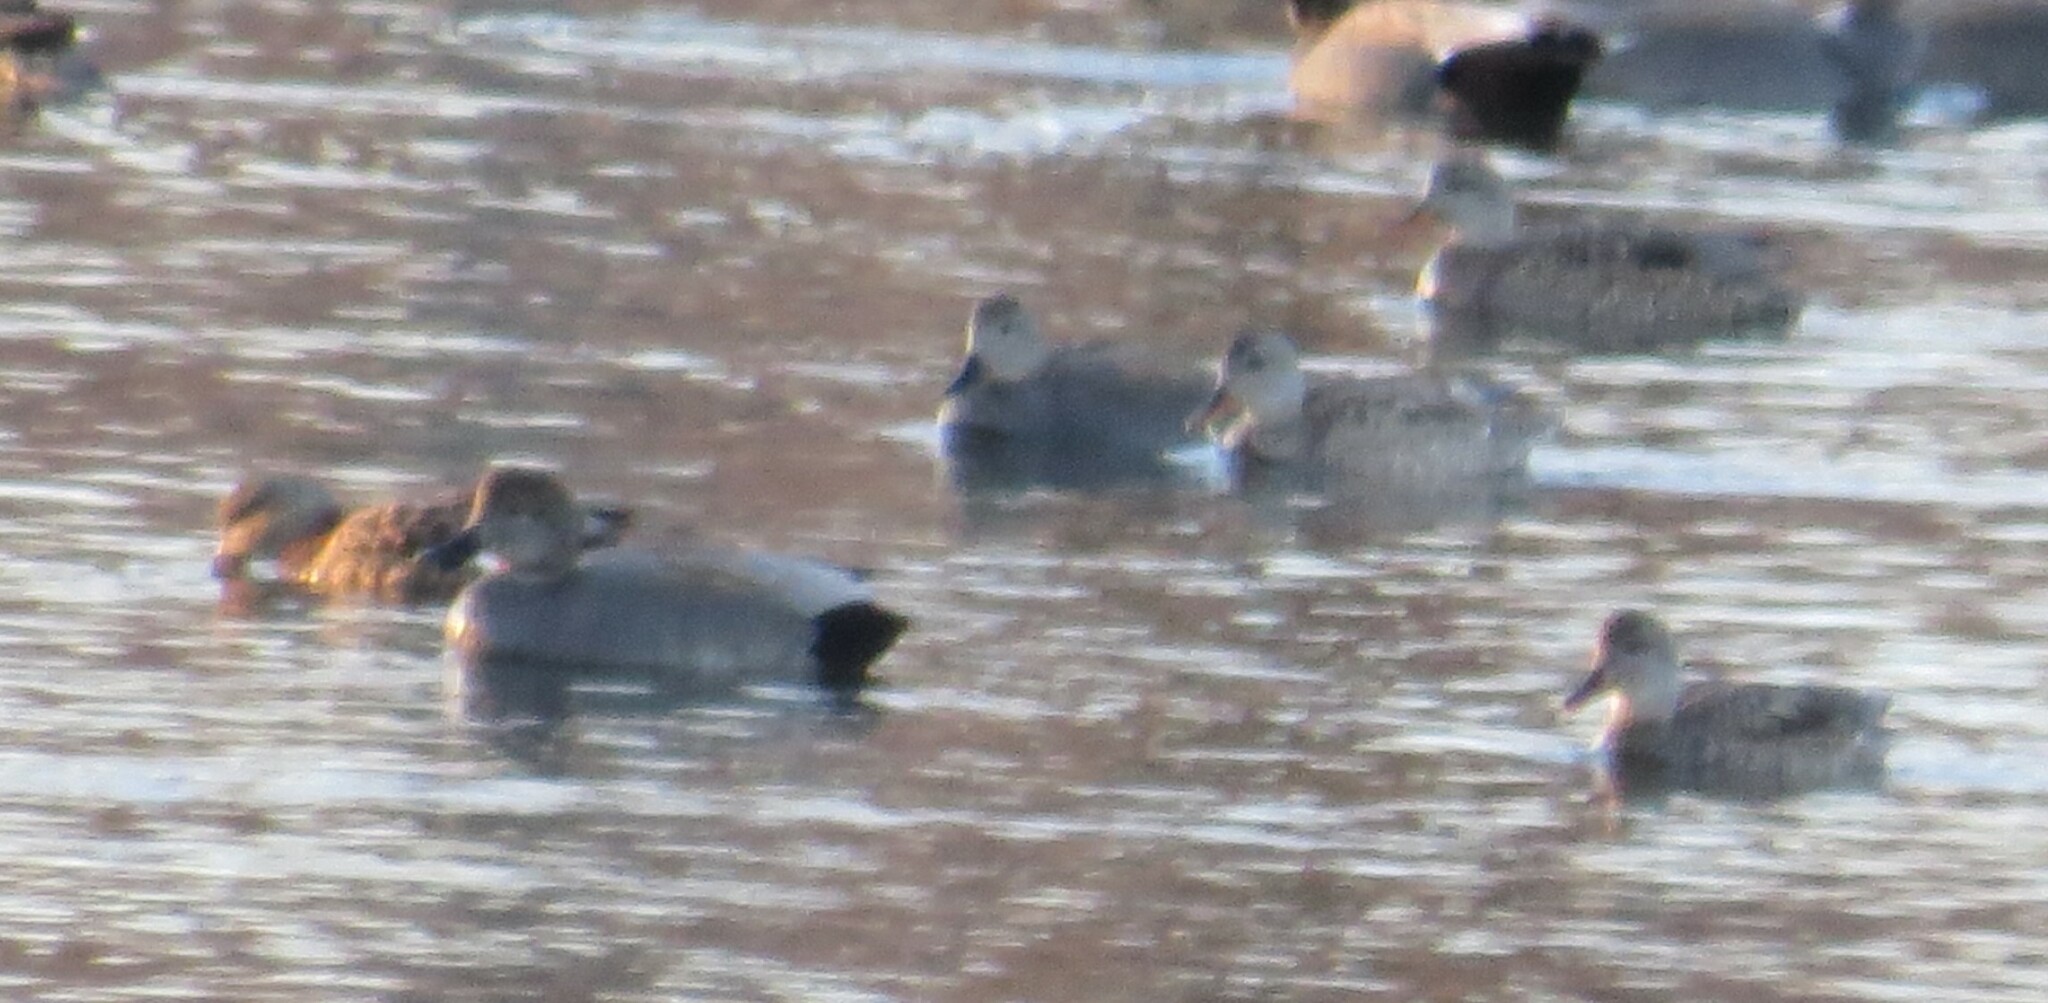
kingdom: Animalia
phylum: Chordata
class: Aves
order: Anseriformes
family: Anatidae
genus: Mareca
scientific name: Mareca strepera
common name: Gadwall
